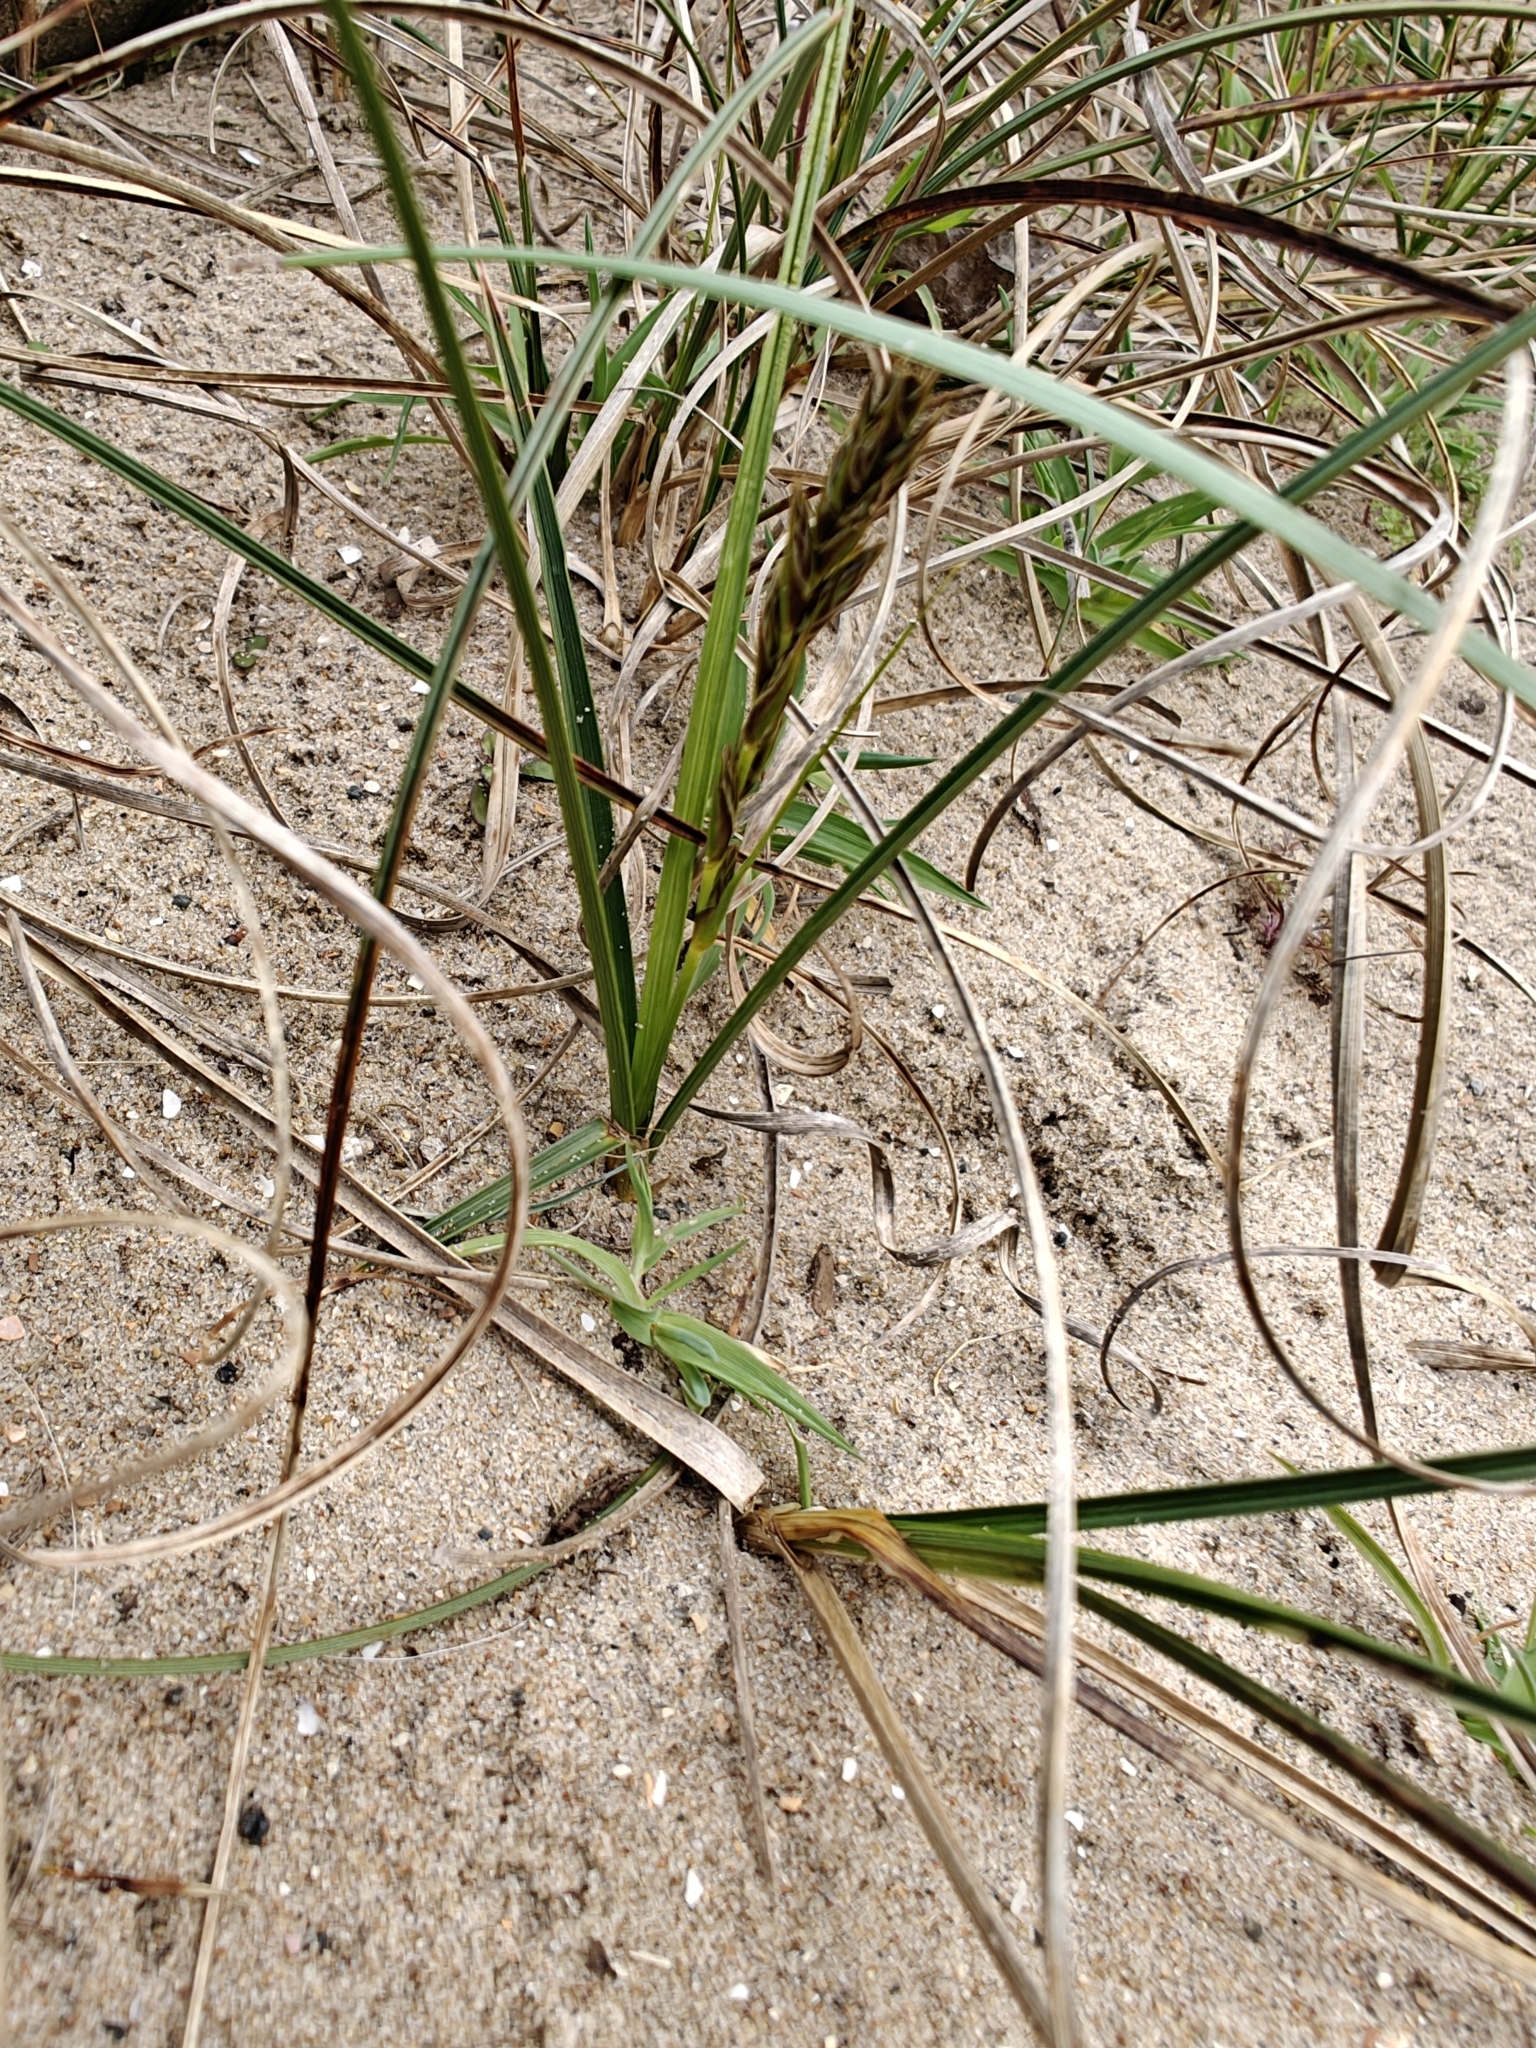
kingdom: Plantae
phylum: Tracheophyta
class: Liliopsida
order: Poales
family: Cyperaceae
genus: Carex
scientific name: Carex arenaria
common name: Sand sedge
